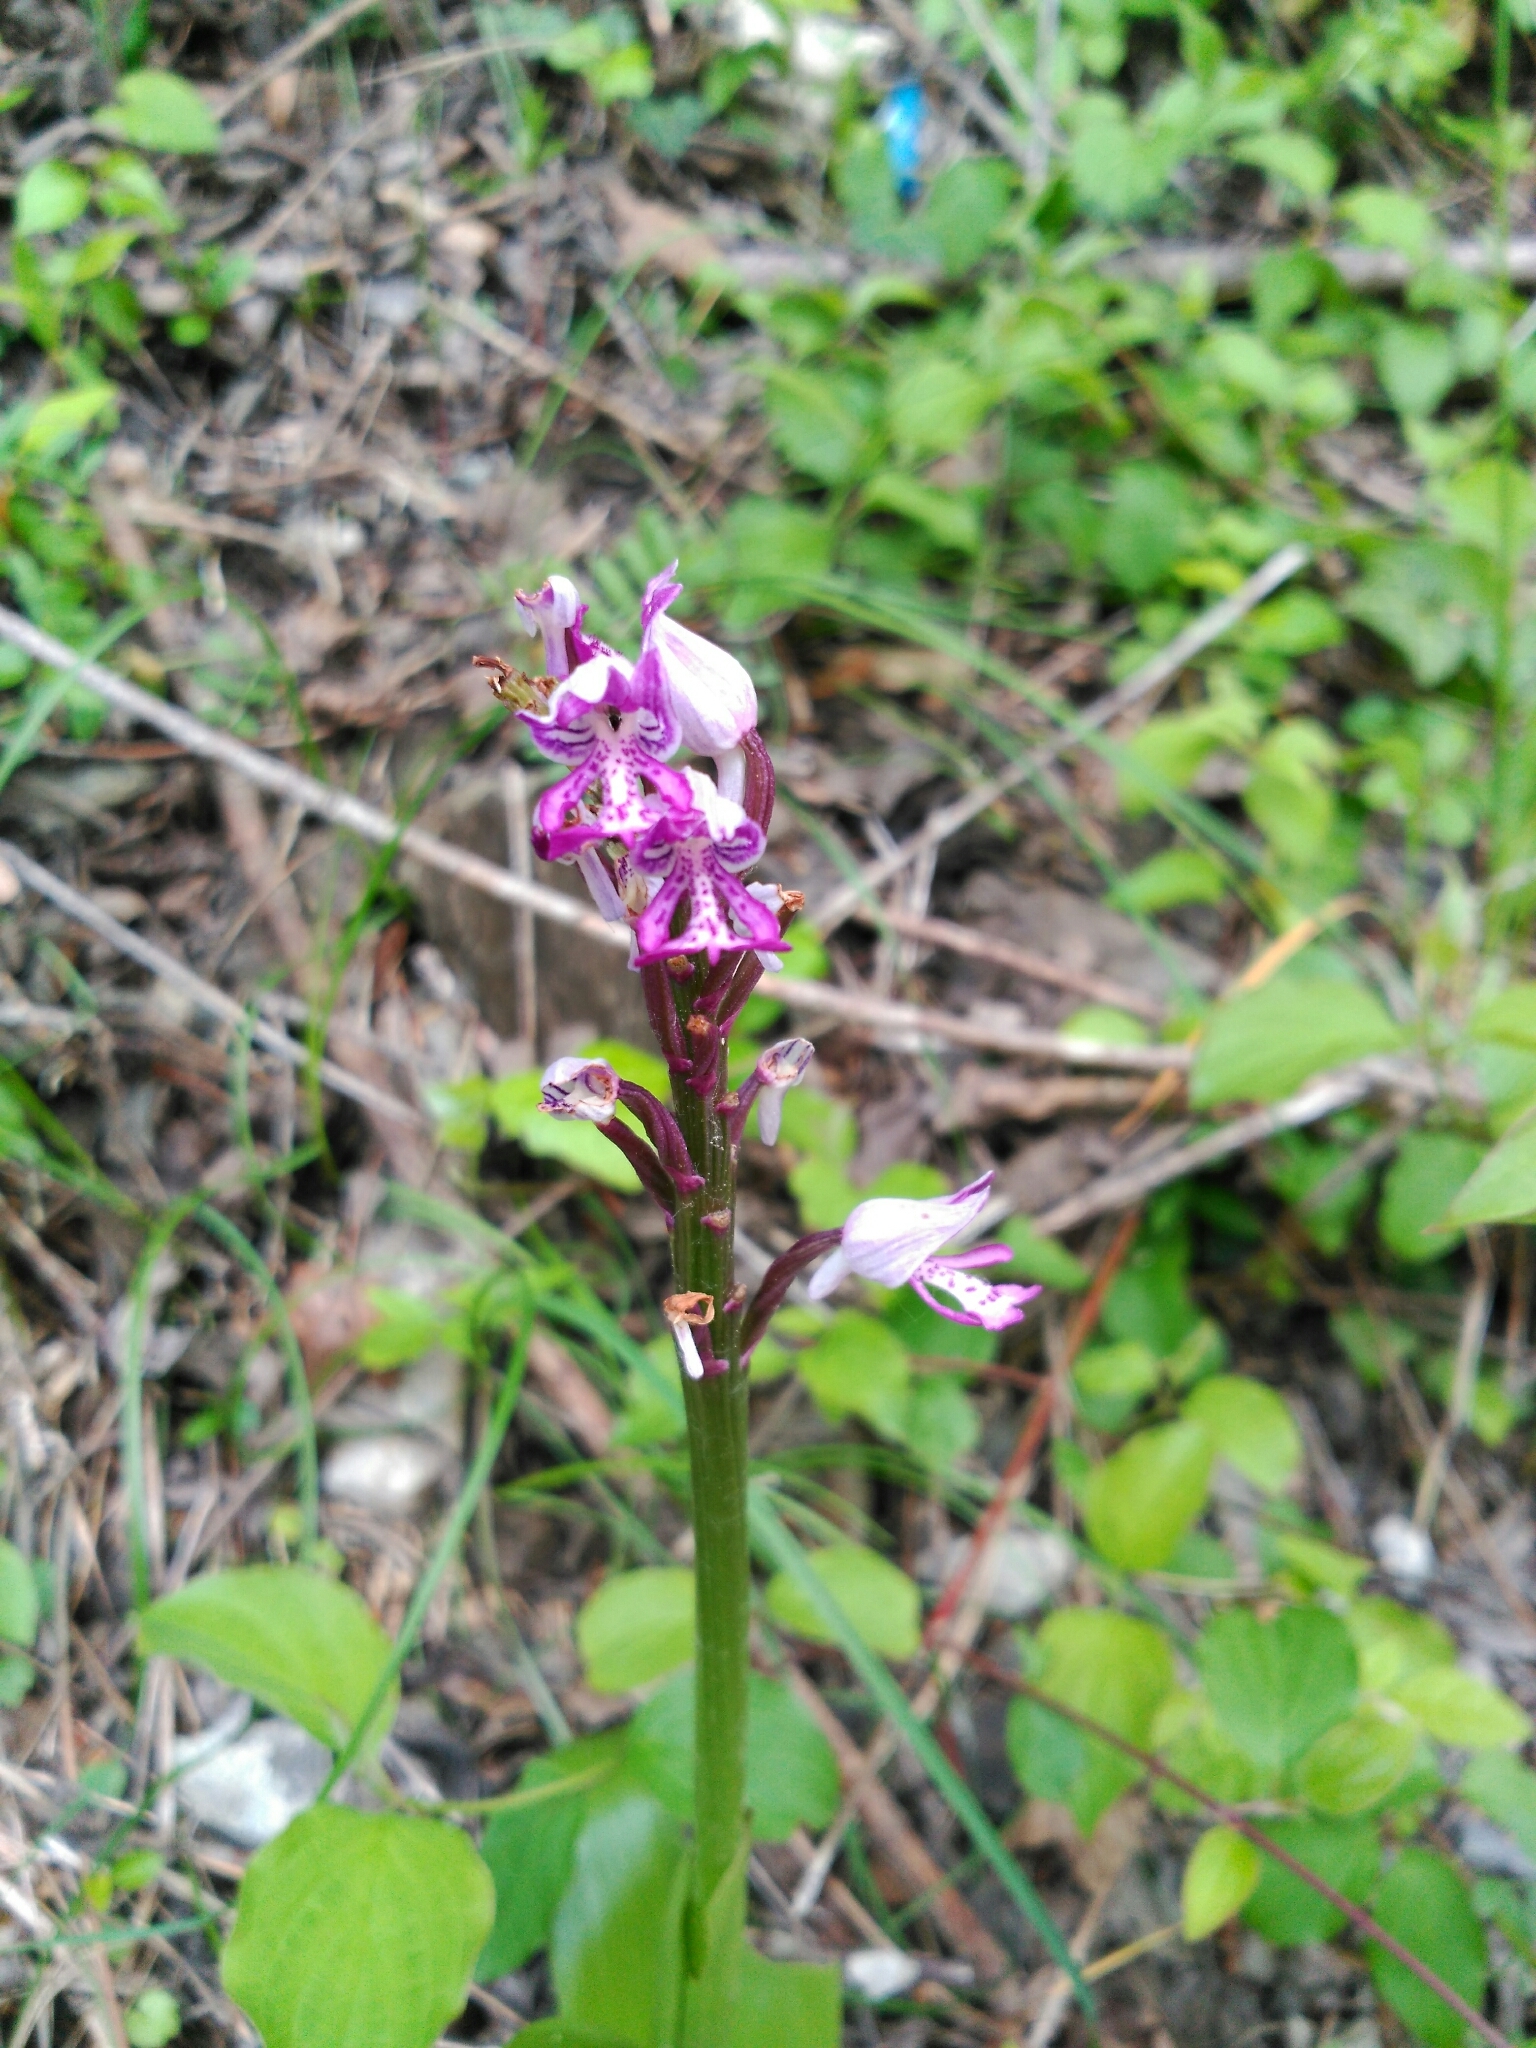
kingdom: Plantae
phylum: Tracheophyta
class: Liliopsida
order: Asparagales
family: Orchidaceae
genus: Orchis
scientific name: Orchis militaris
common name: Military orchid
